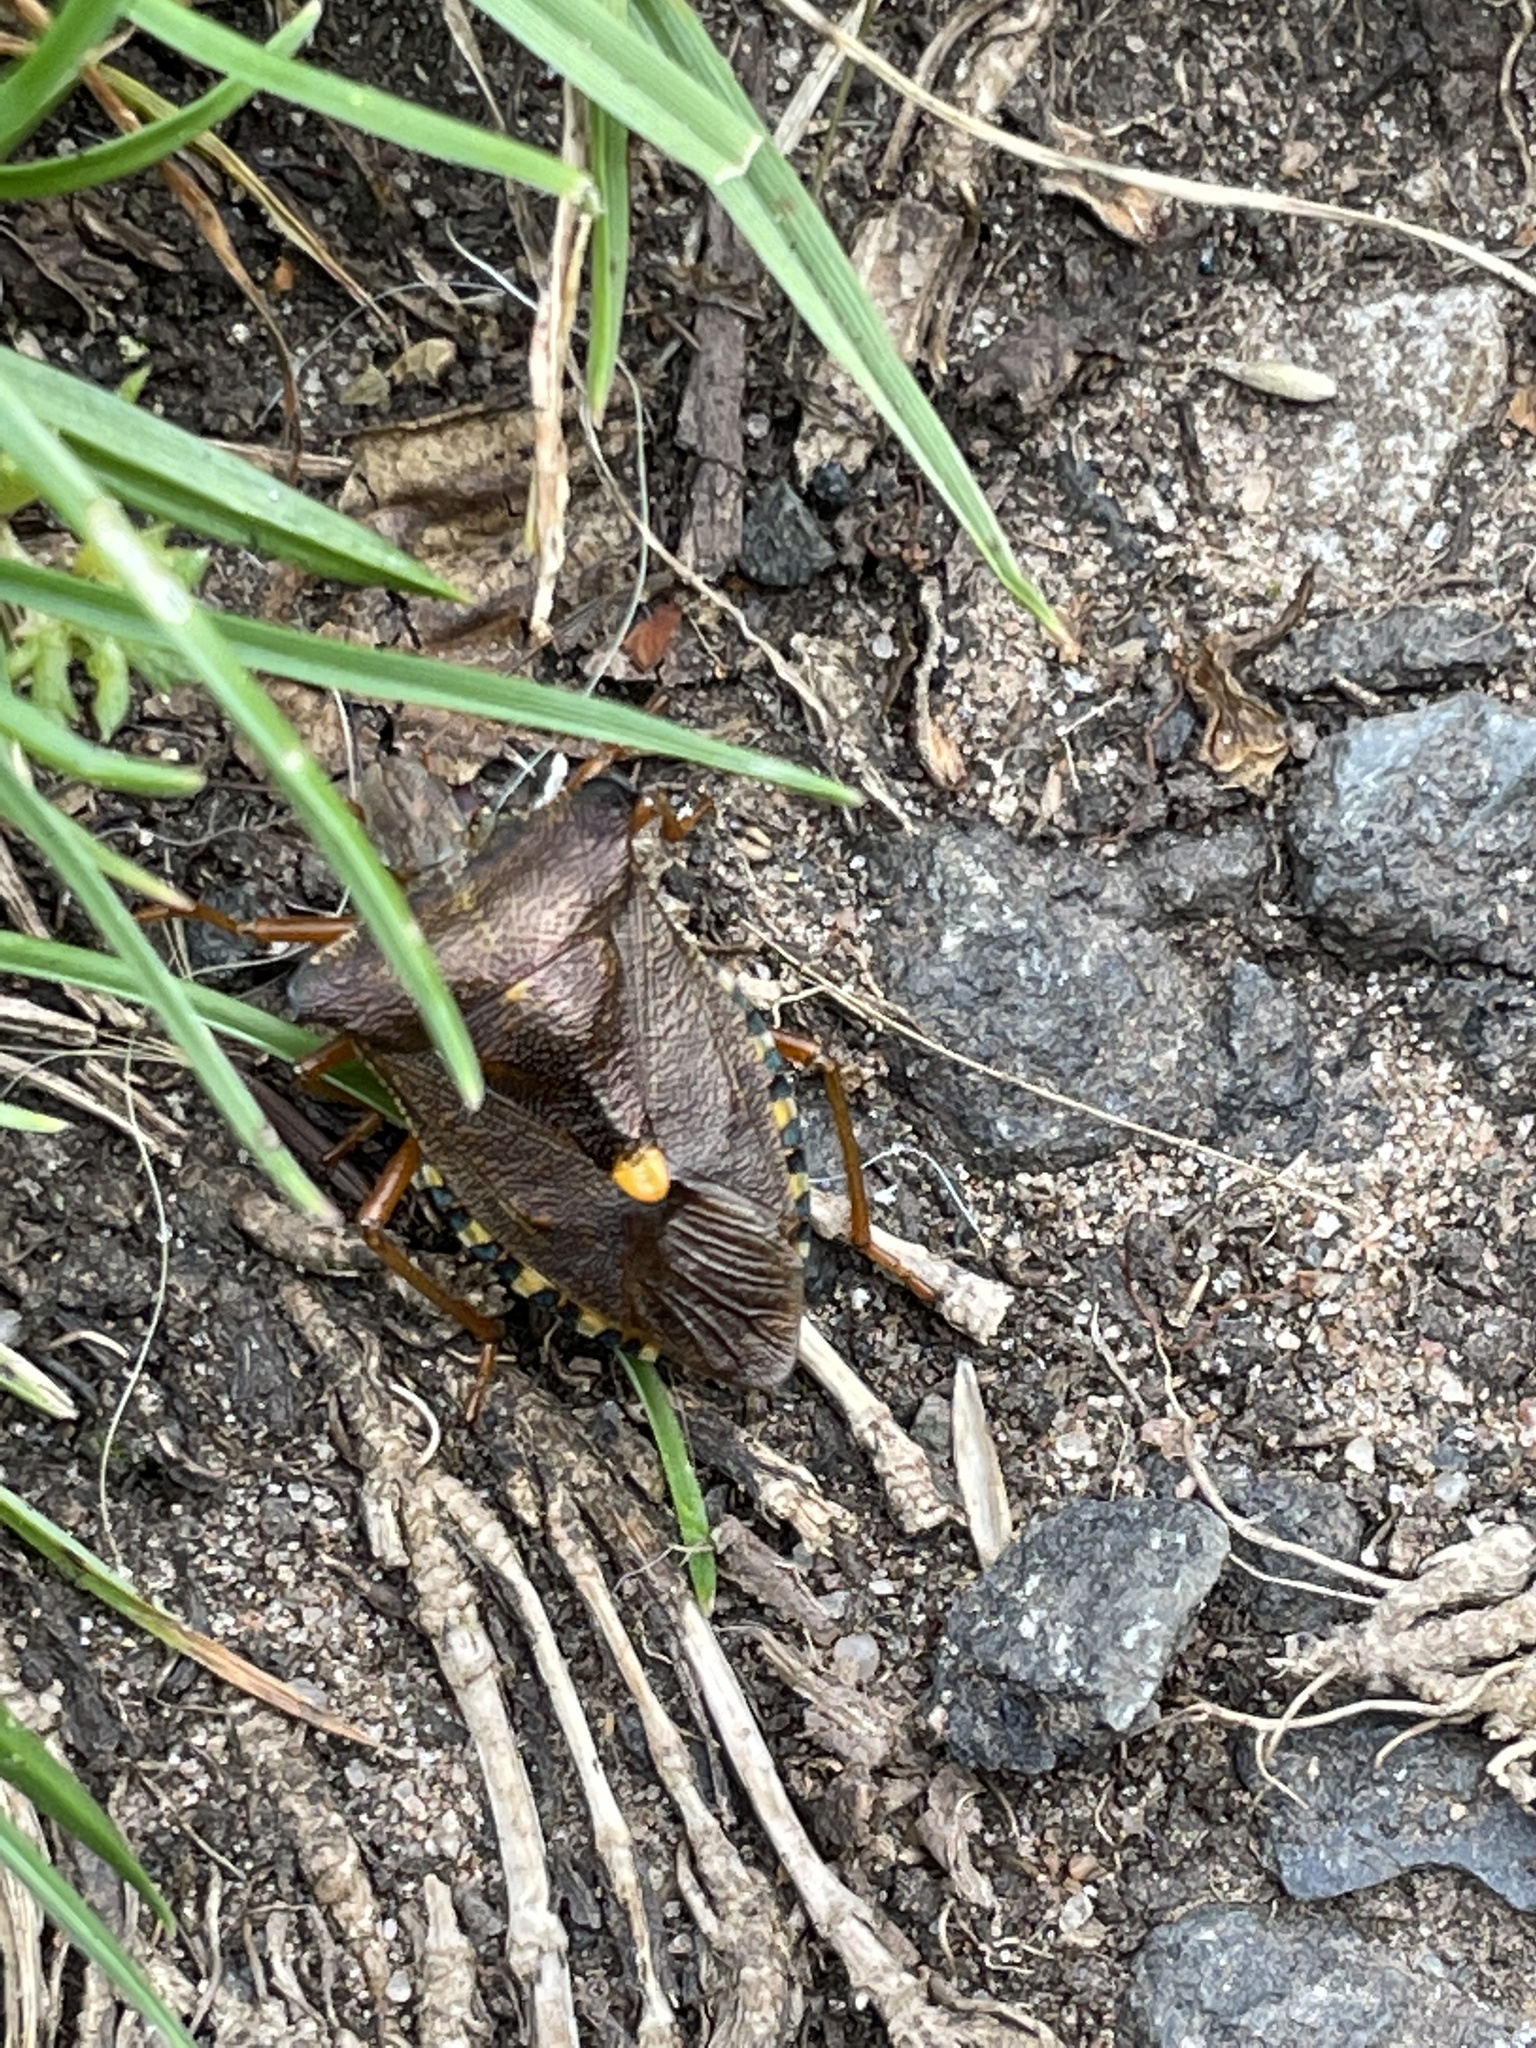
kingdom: Animalia
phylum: Arthropoda
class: Insecta
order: Hemiptera
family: Pentatomidae
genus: Pentatoma
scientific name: Pentatoma rufipes
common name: Forest bug
